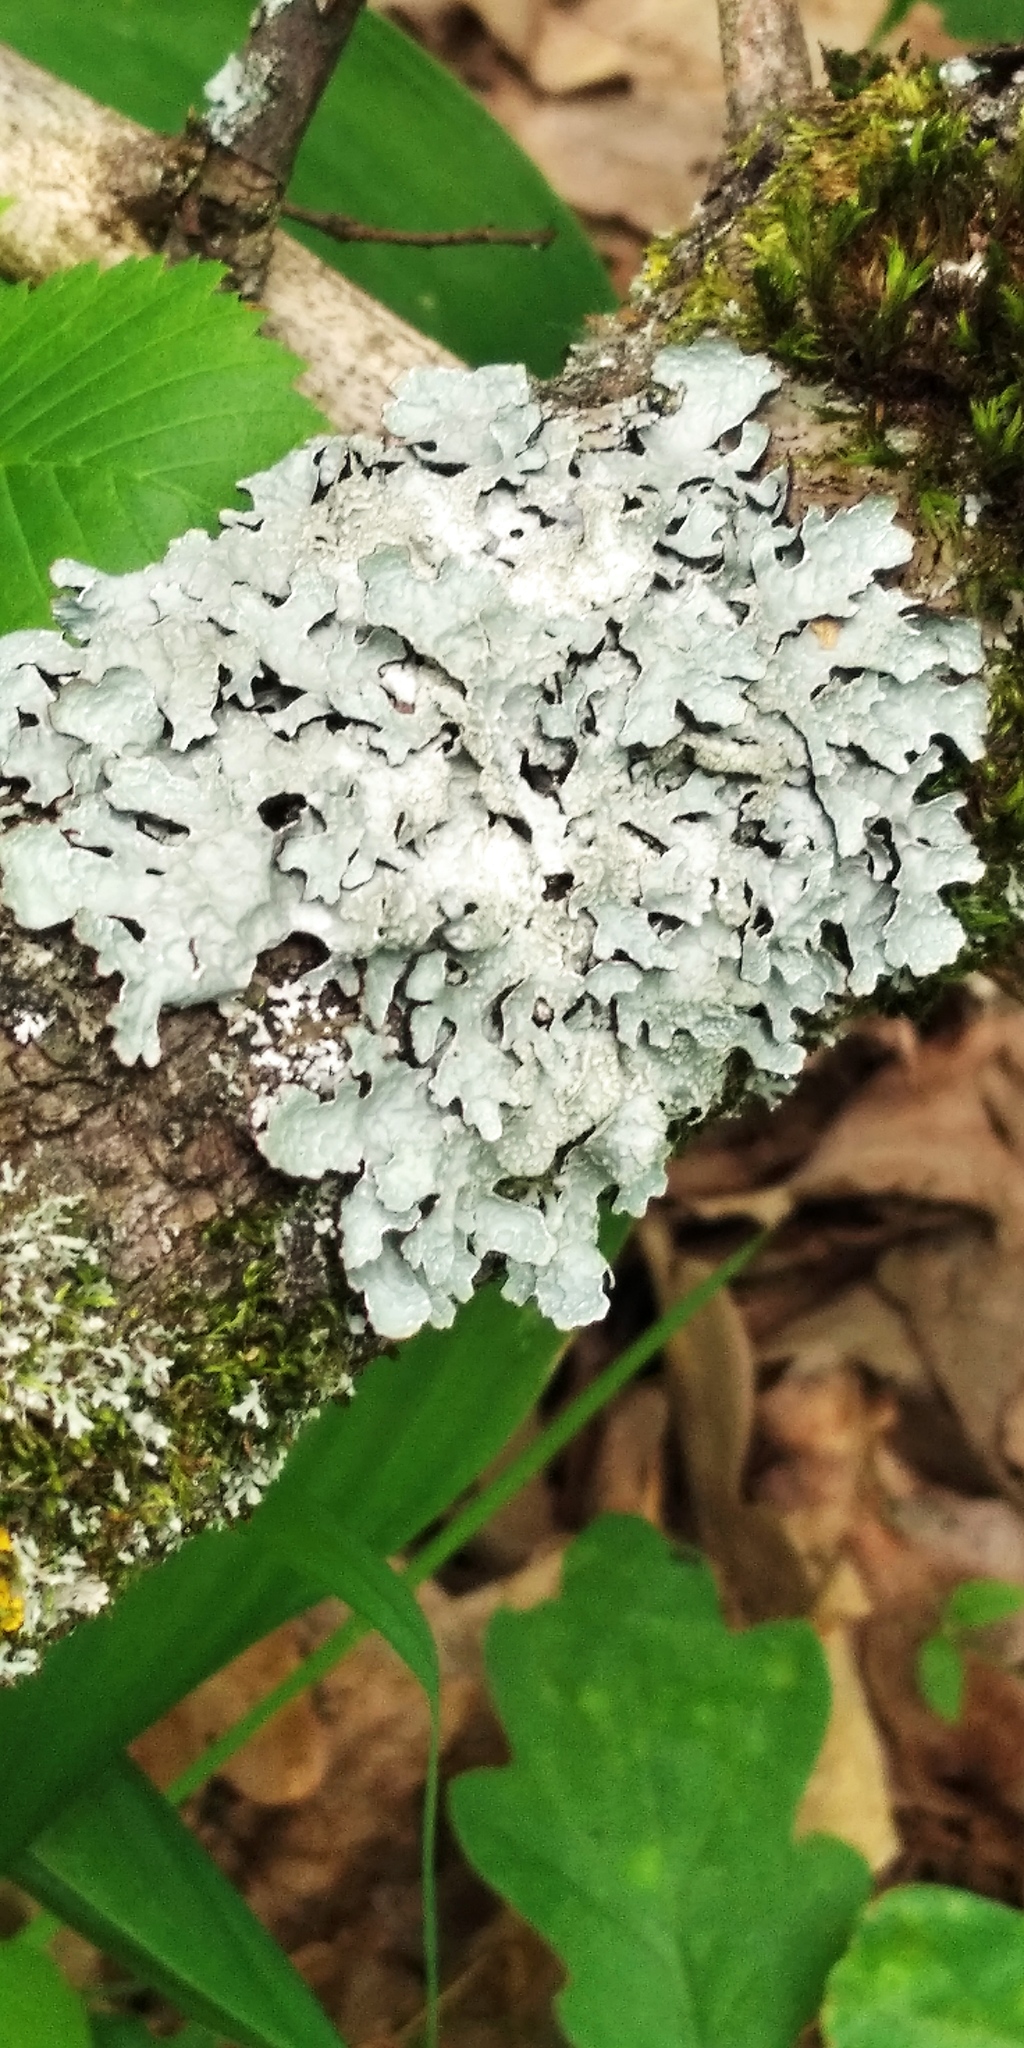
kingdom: Fungi
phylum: Ascomycota
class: Lecanoromycetes
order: Lecanorales
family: Parmeliaceae
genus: Parmelia
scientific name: Parmelia sulcata
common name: Netted shield lichen
